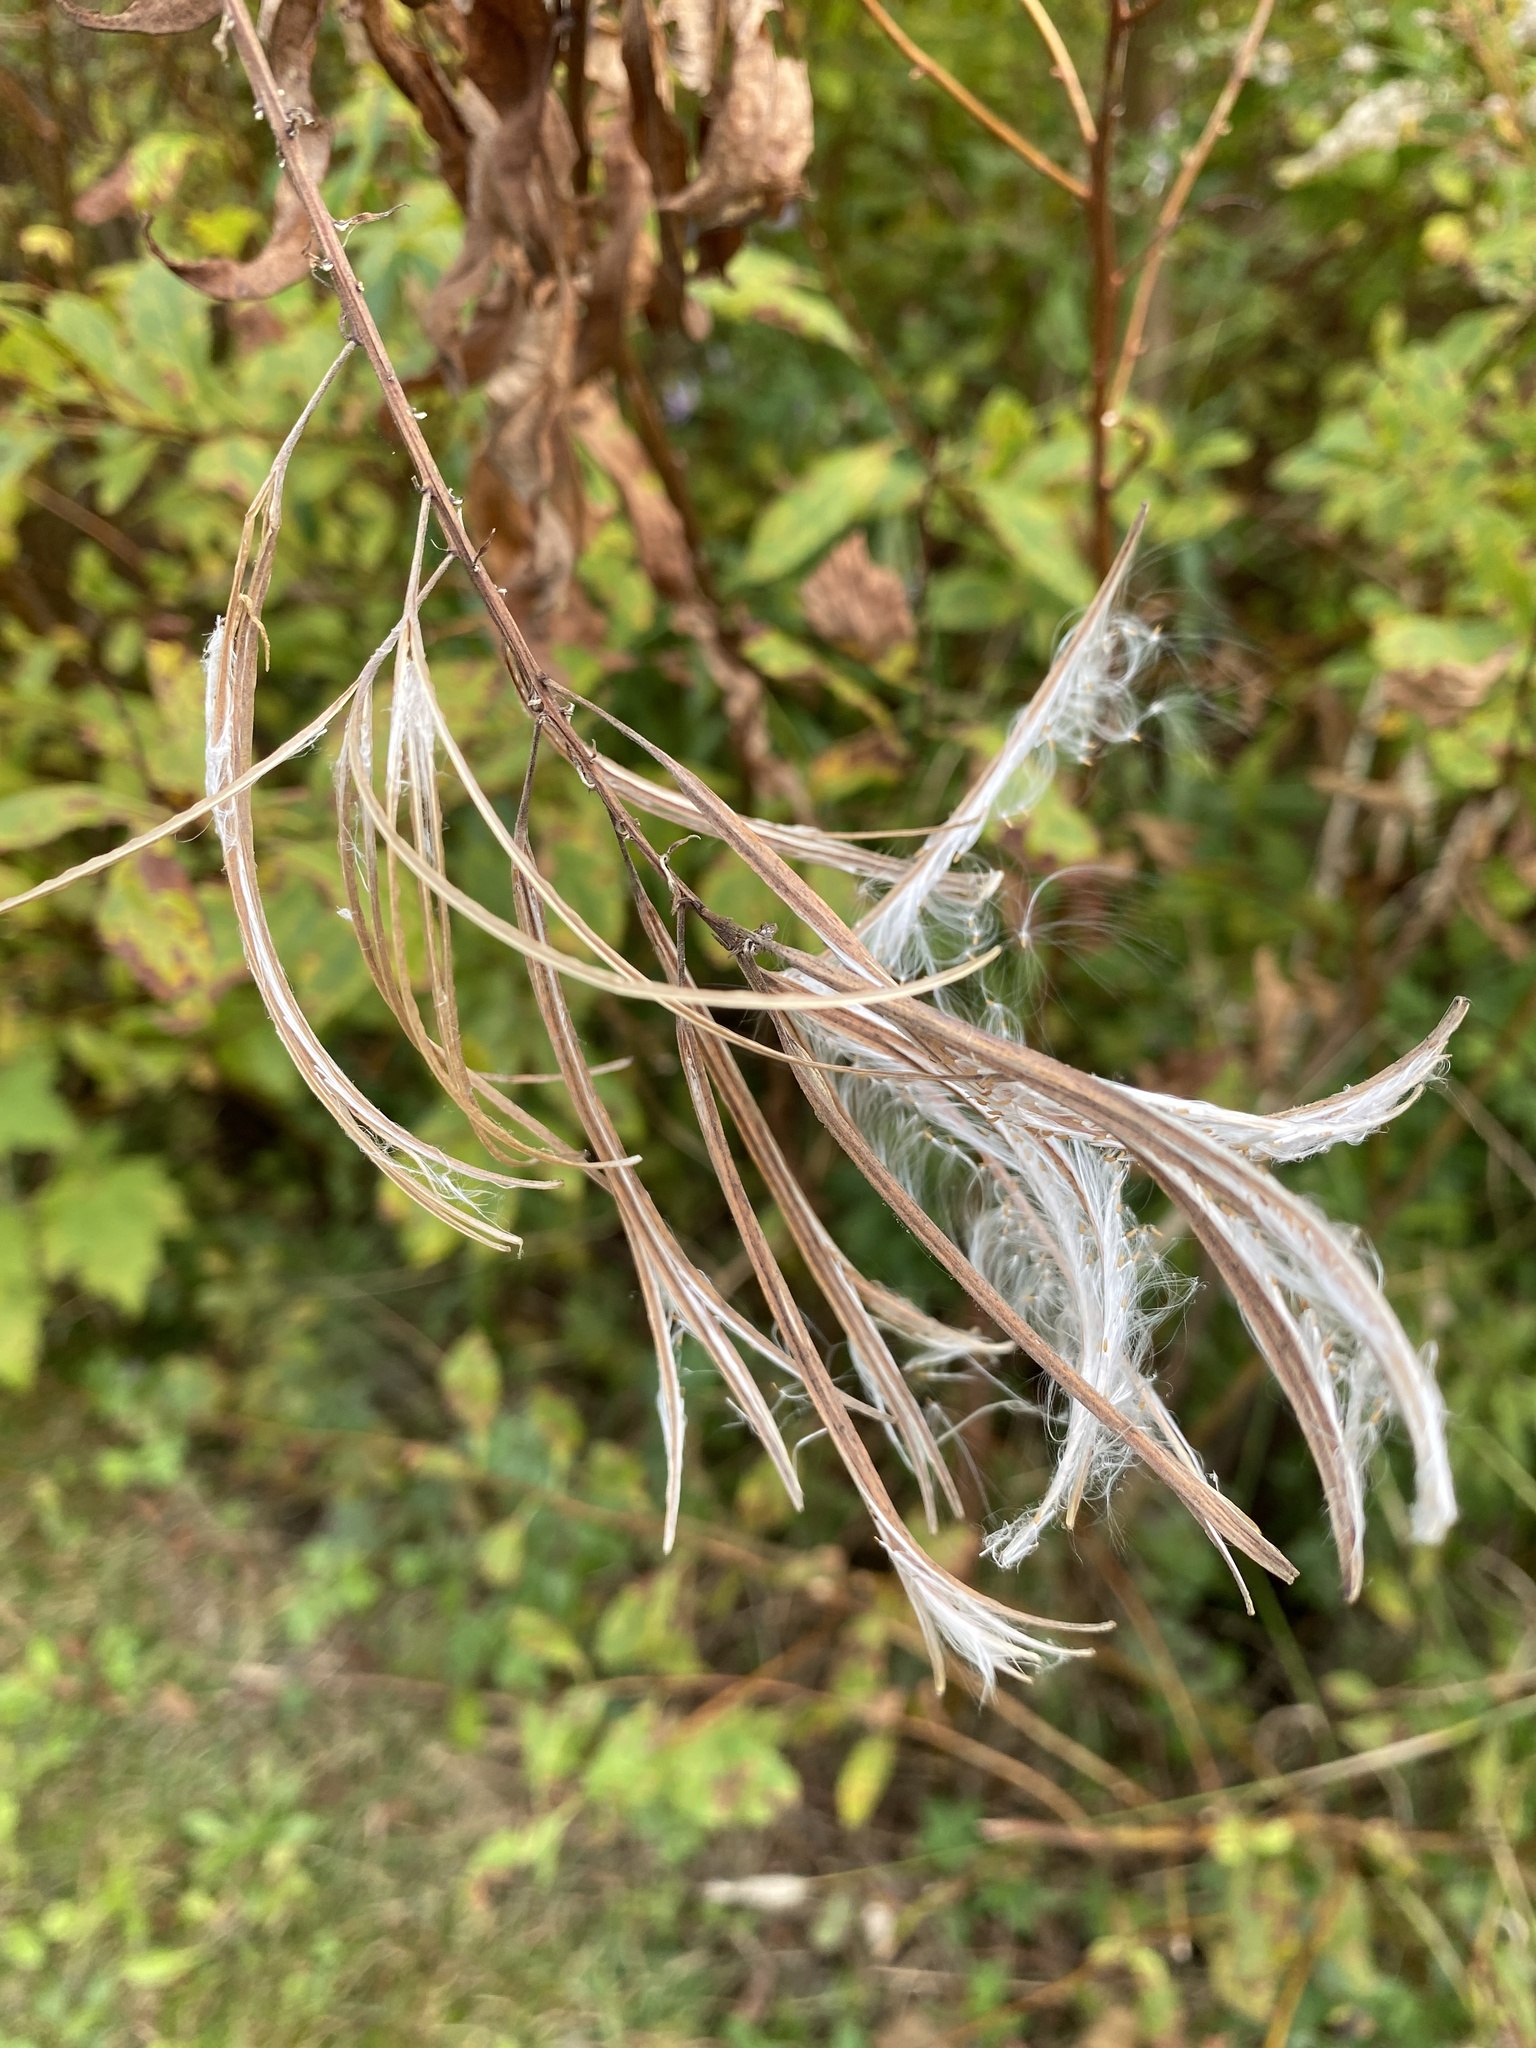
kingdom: Plantae
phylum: Tracheophyta
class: Magnoliopsida
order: Myrtales
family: Onagraceae
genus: Chamaenerion
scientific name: Chamaenerion angustifolium
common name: Fireweed
